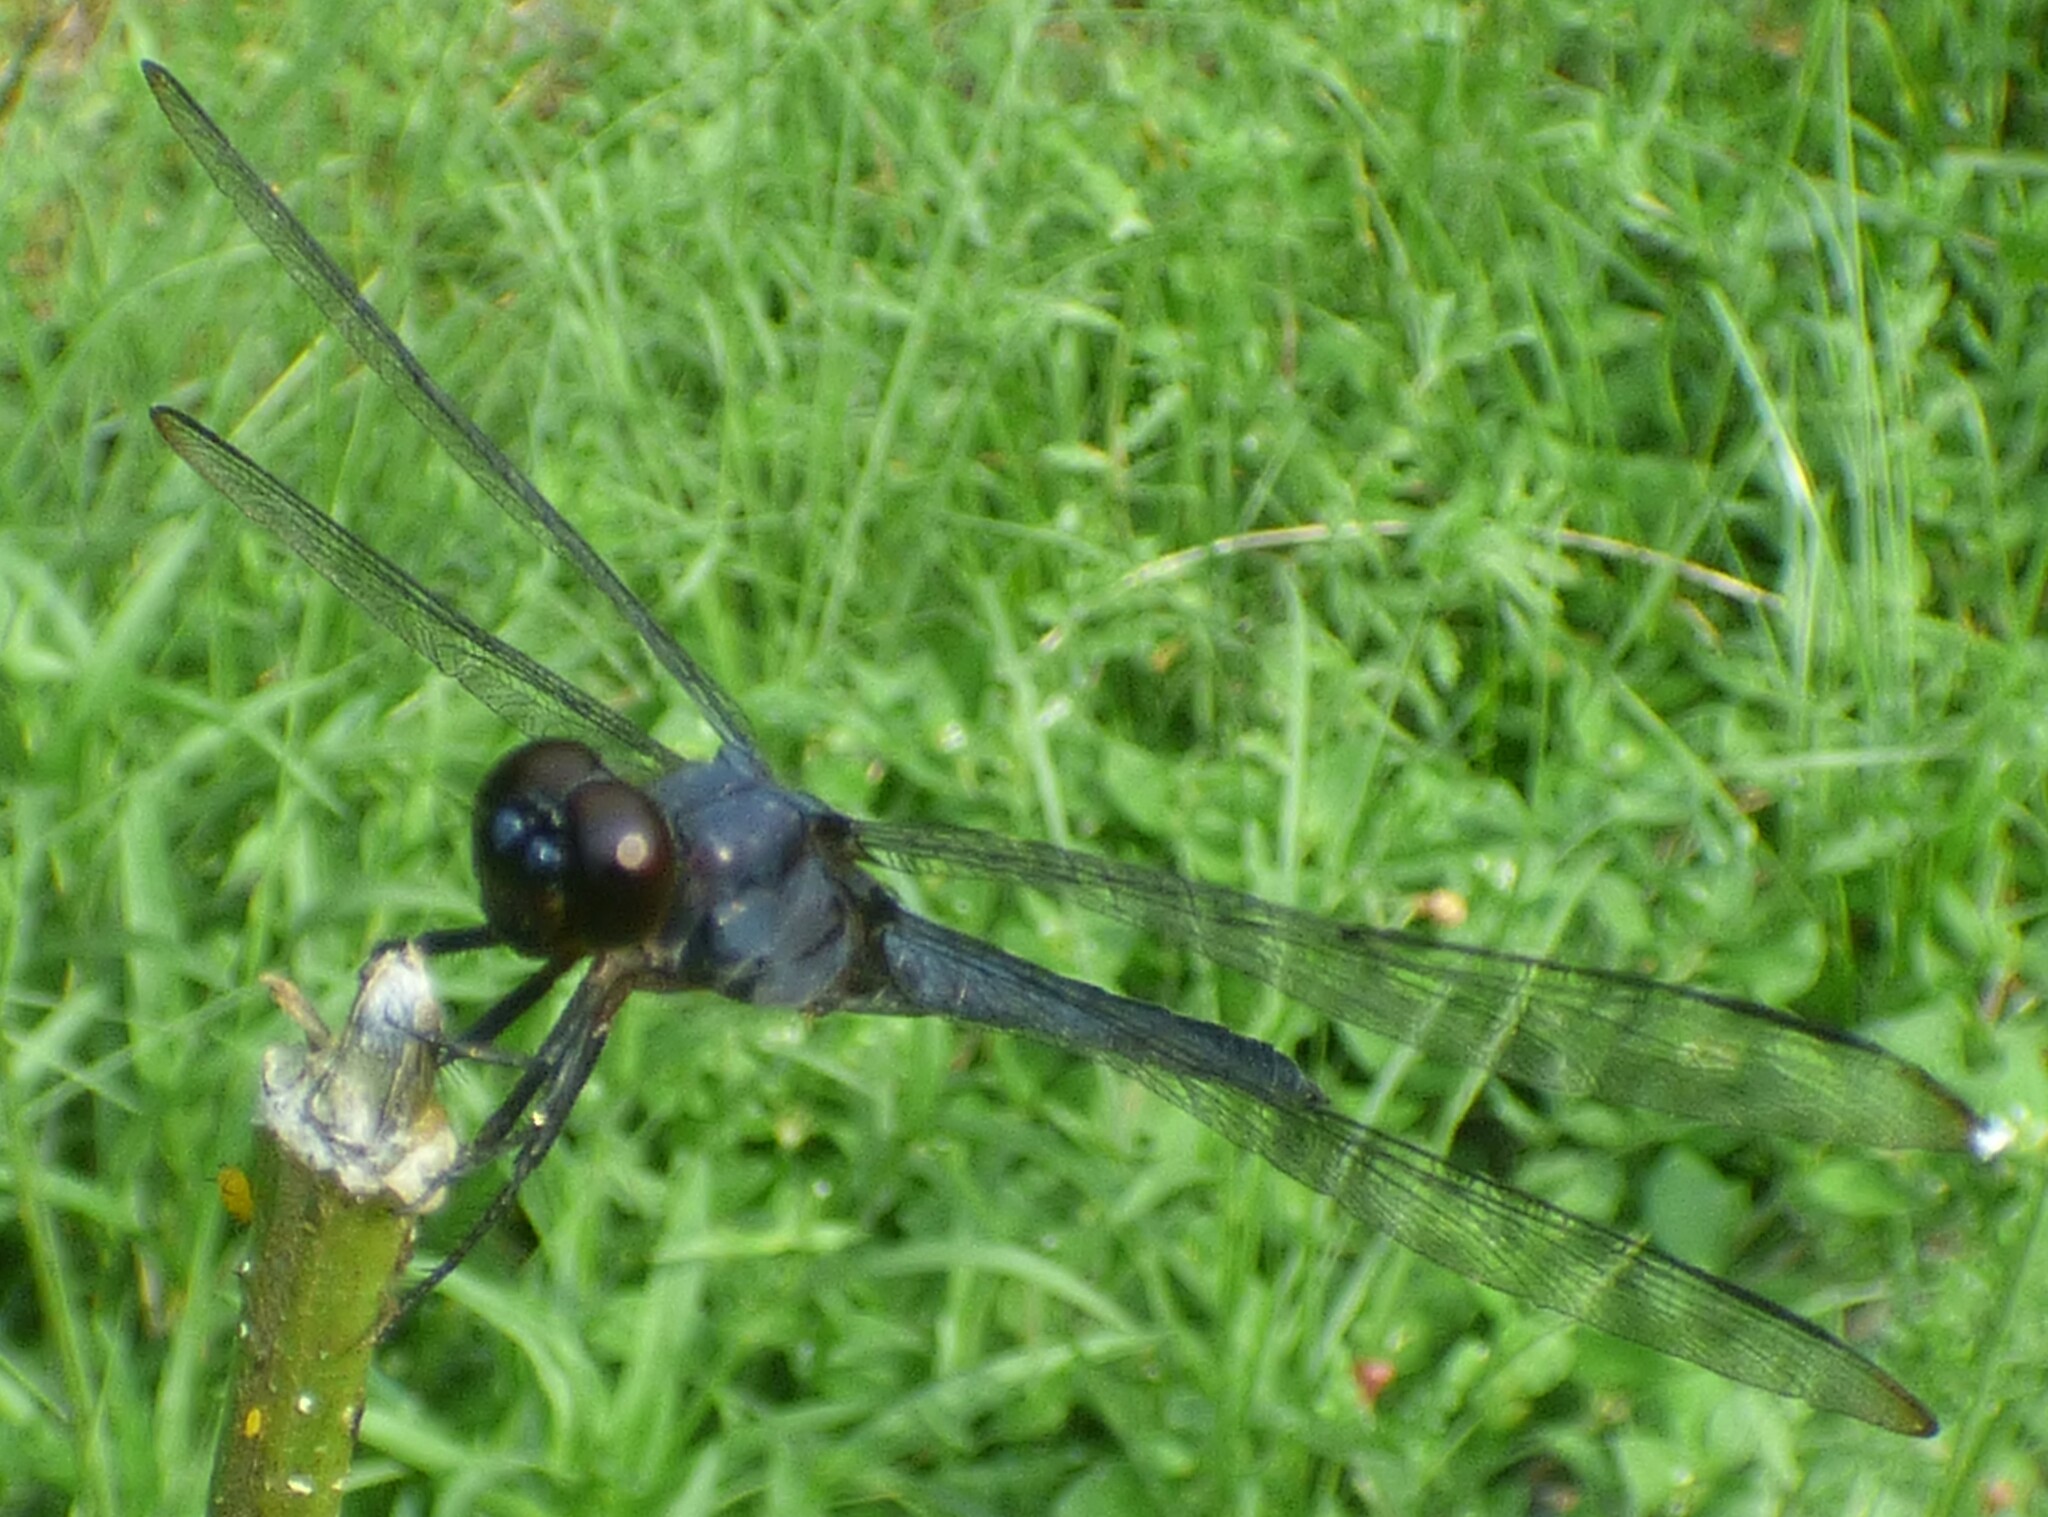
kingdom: Animalia
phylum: Arthropoda
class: Insecta
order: Odonata
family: Libellulidae
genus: Libellula
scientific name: Libellula incesta
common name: Slaty skimmer
